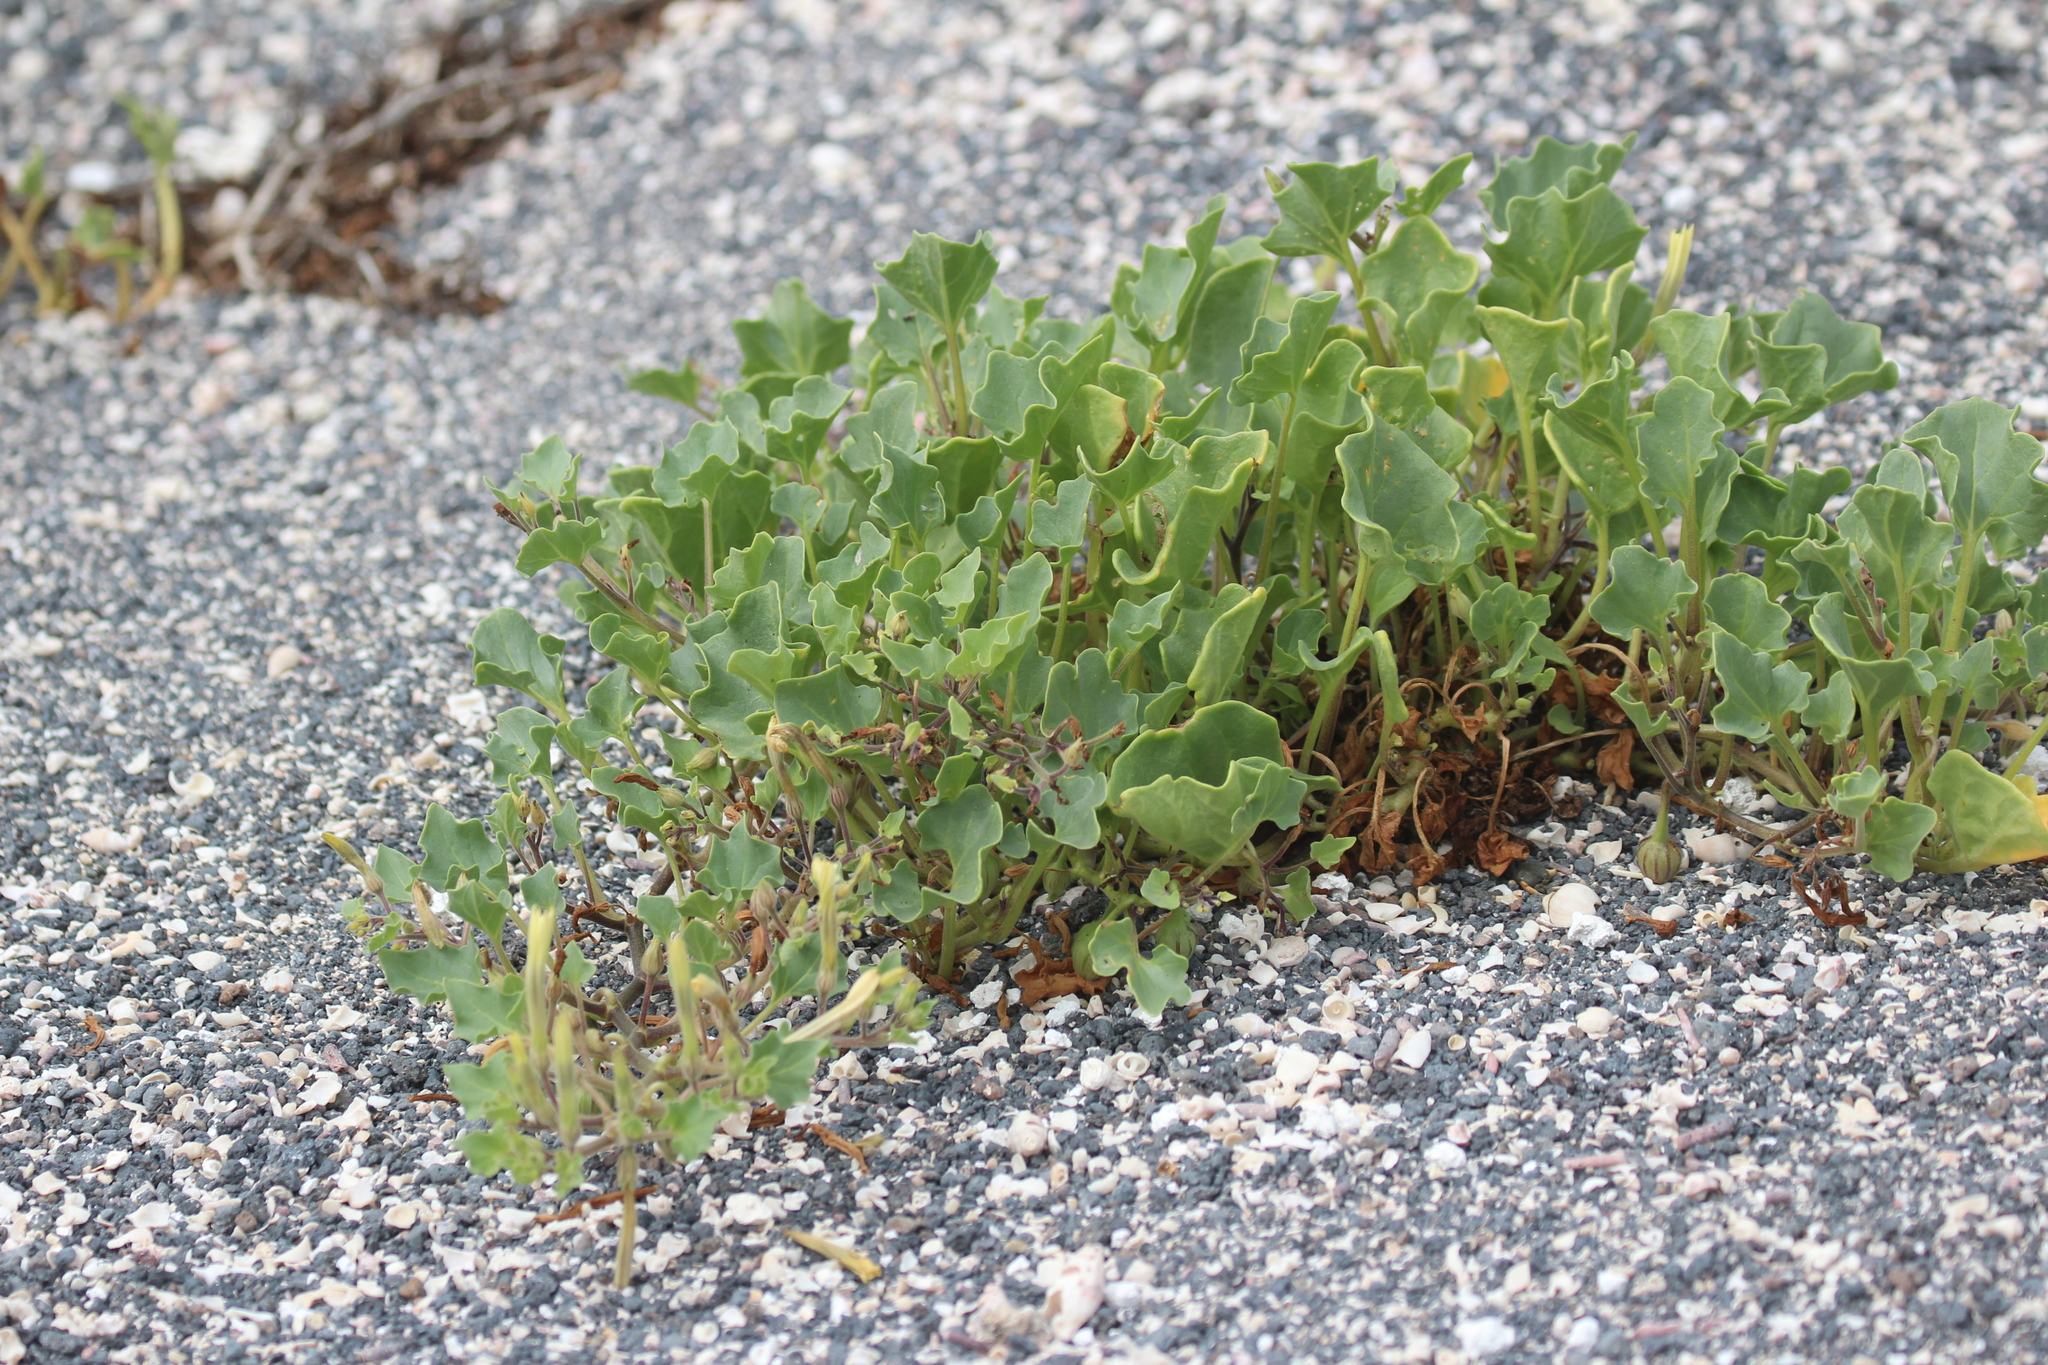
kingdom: Plantae
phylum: Tracheophyta
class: Magnoliopsida
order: Solanales
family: Solanaceae
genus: Exodeconus
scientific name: Exodeconus miersii
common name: Galapagos shore petunia
